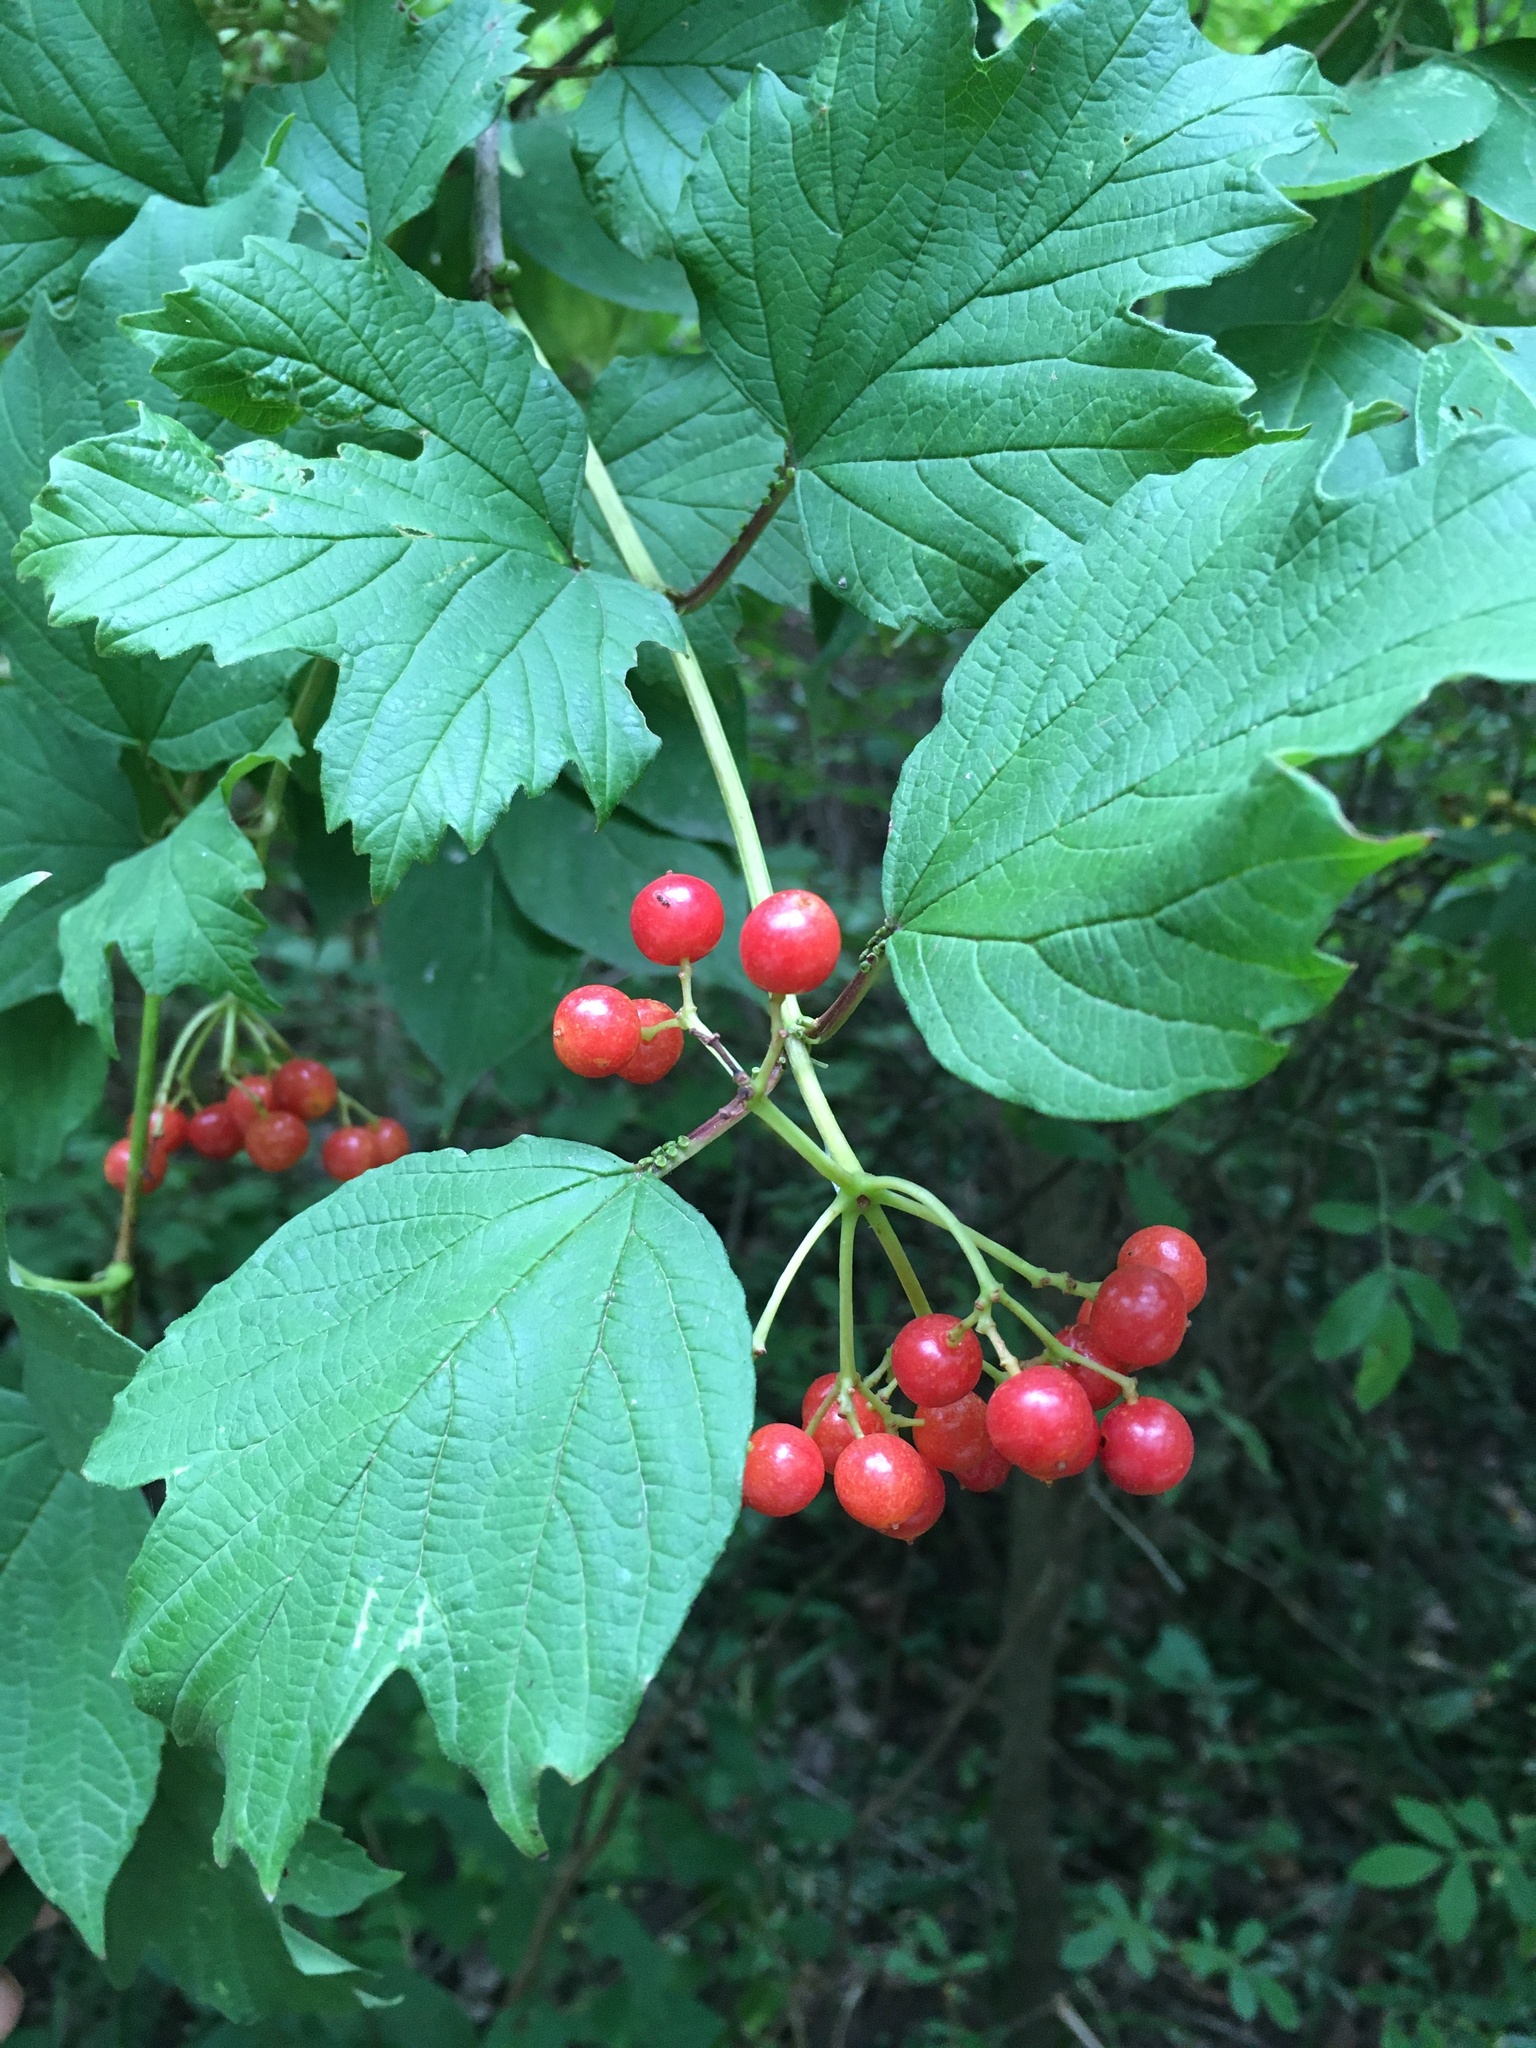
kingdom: Plantae
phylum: Tracheophyta
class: Magnoliopsida
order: Dipsacales
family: Viburnaceae
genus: Viburnum
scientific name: Viburnum opulus
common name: Guelder-rose
